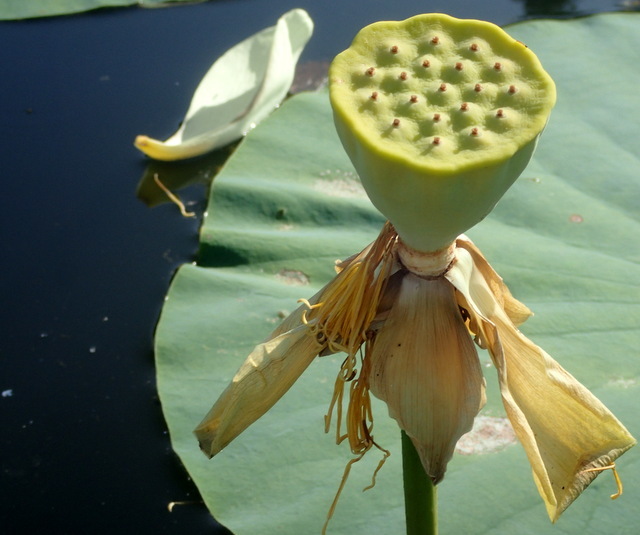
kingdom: Plantae
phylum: Tracheophyta
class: Magnoliopsida
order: Proteales
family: Nelumbonaceae
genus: Nelumbo
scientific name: Nelumbo lutea
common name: American lotus
